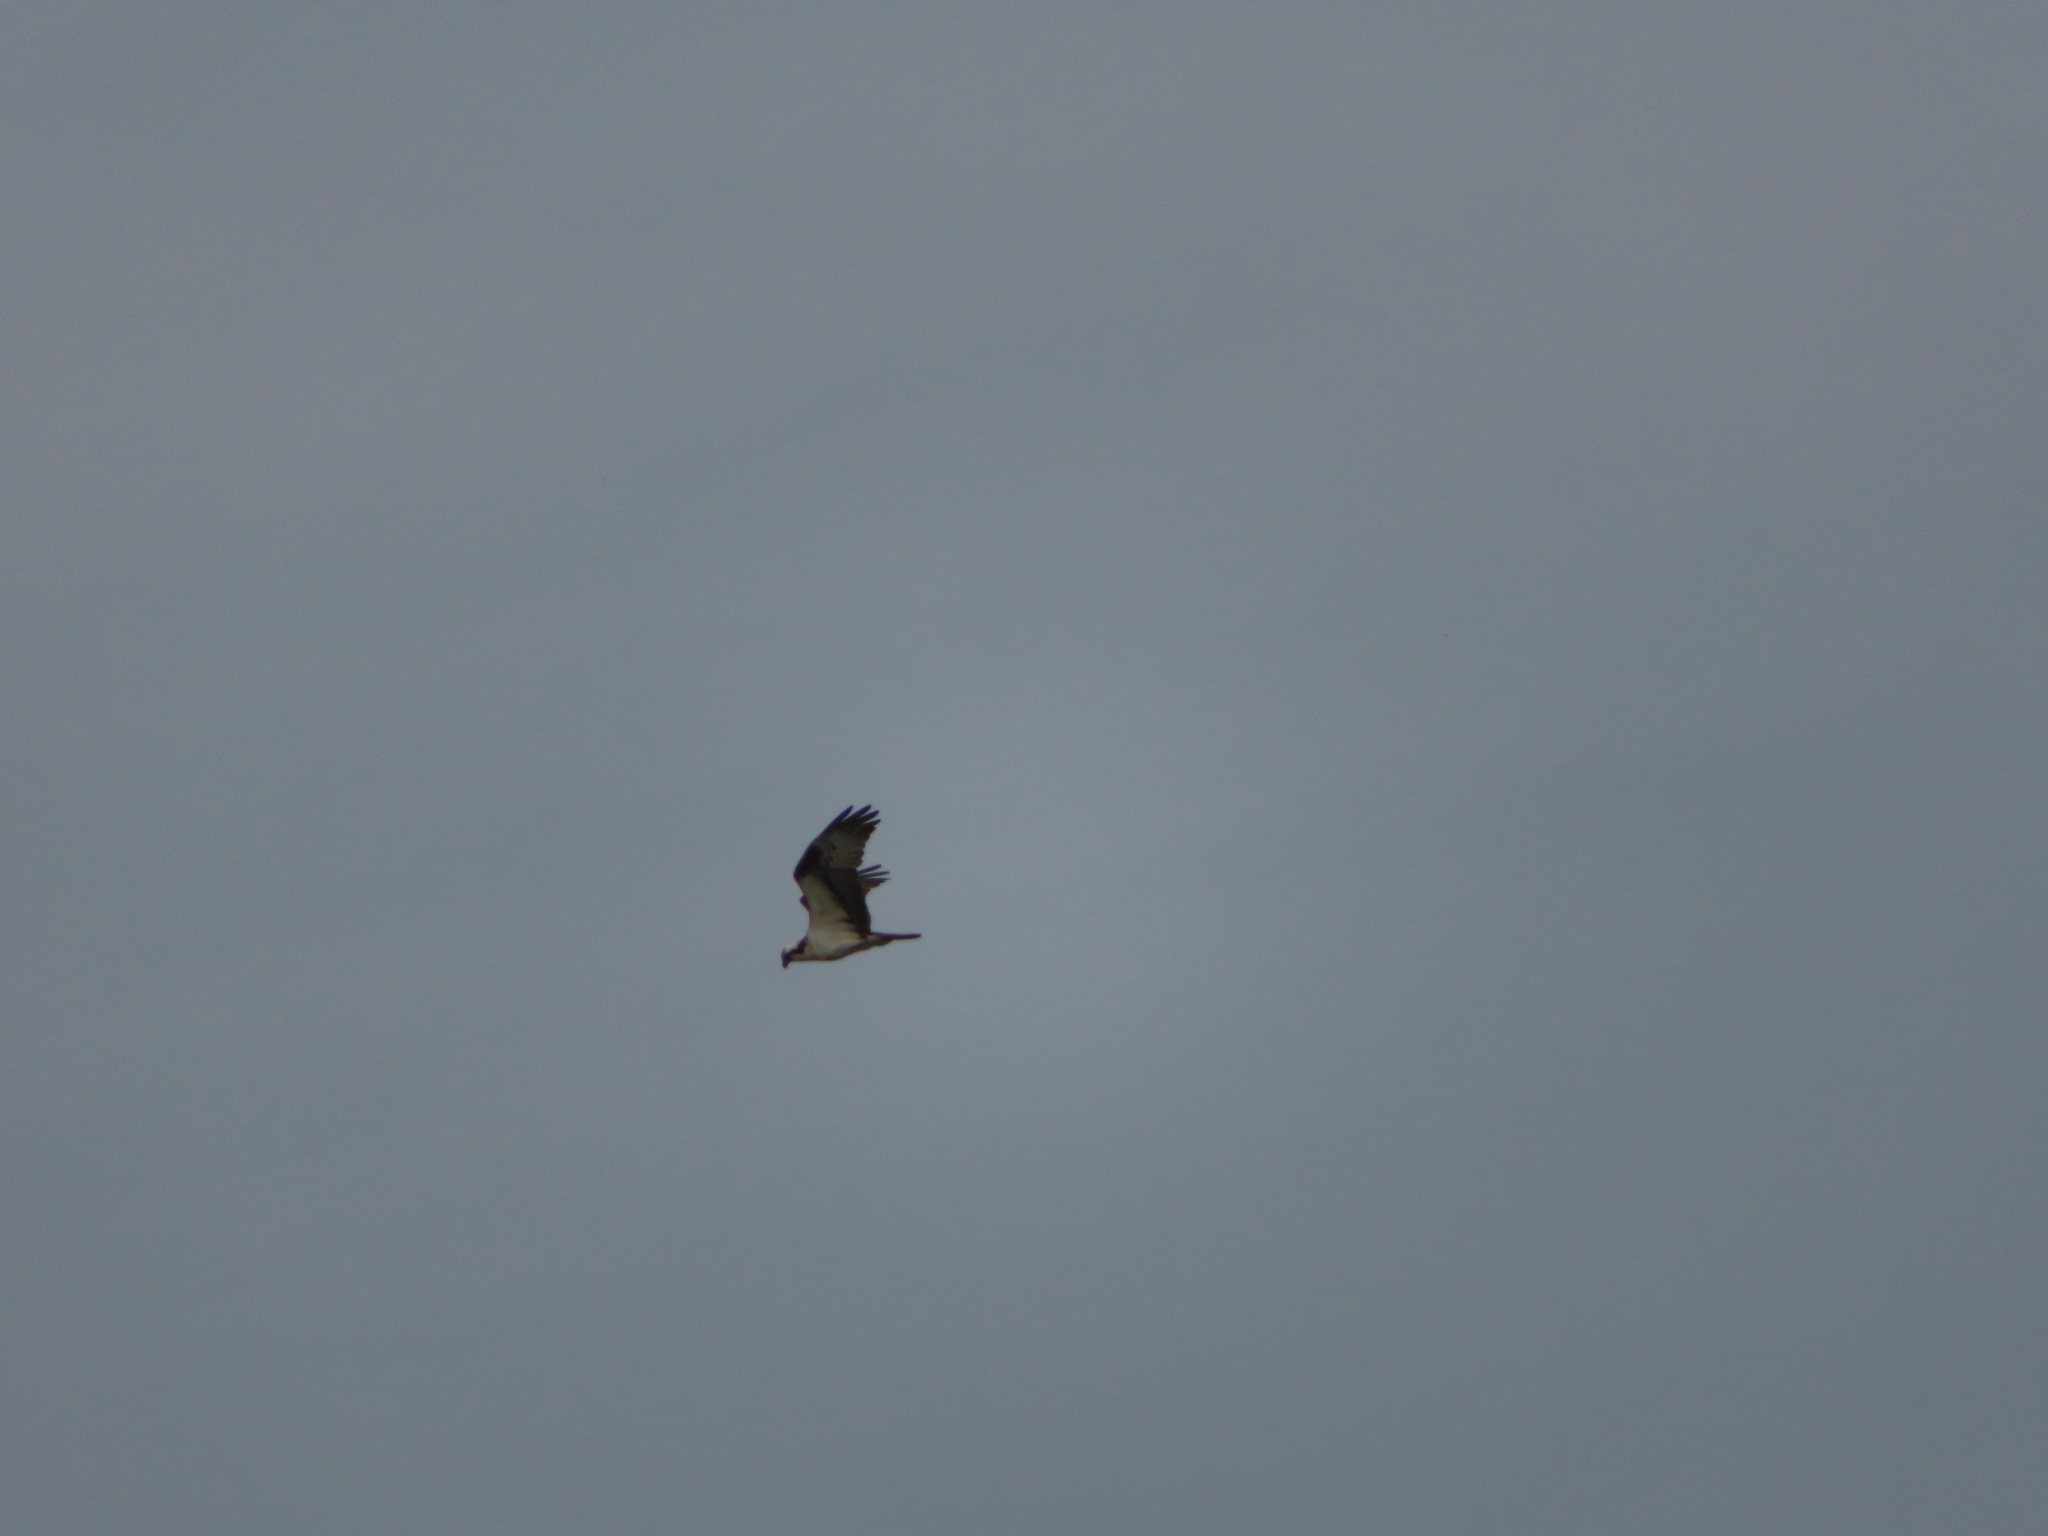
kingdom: Animalia
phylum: Chordata
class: Aves
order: Accipitriformes
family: Pandionidae
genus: Pandion
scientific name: Pandion haliaetus
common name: Osprey
